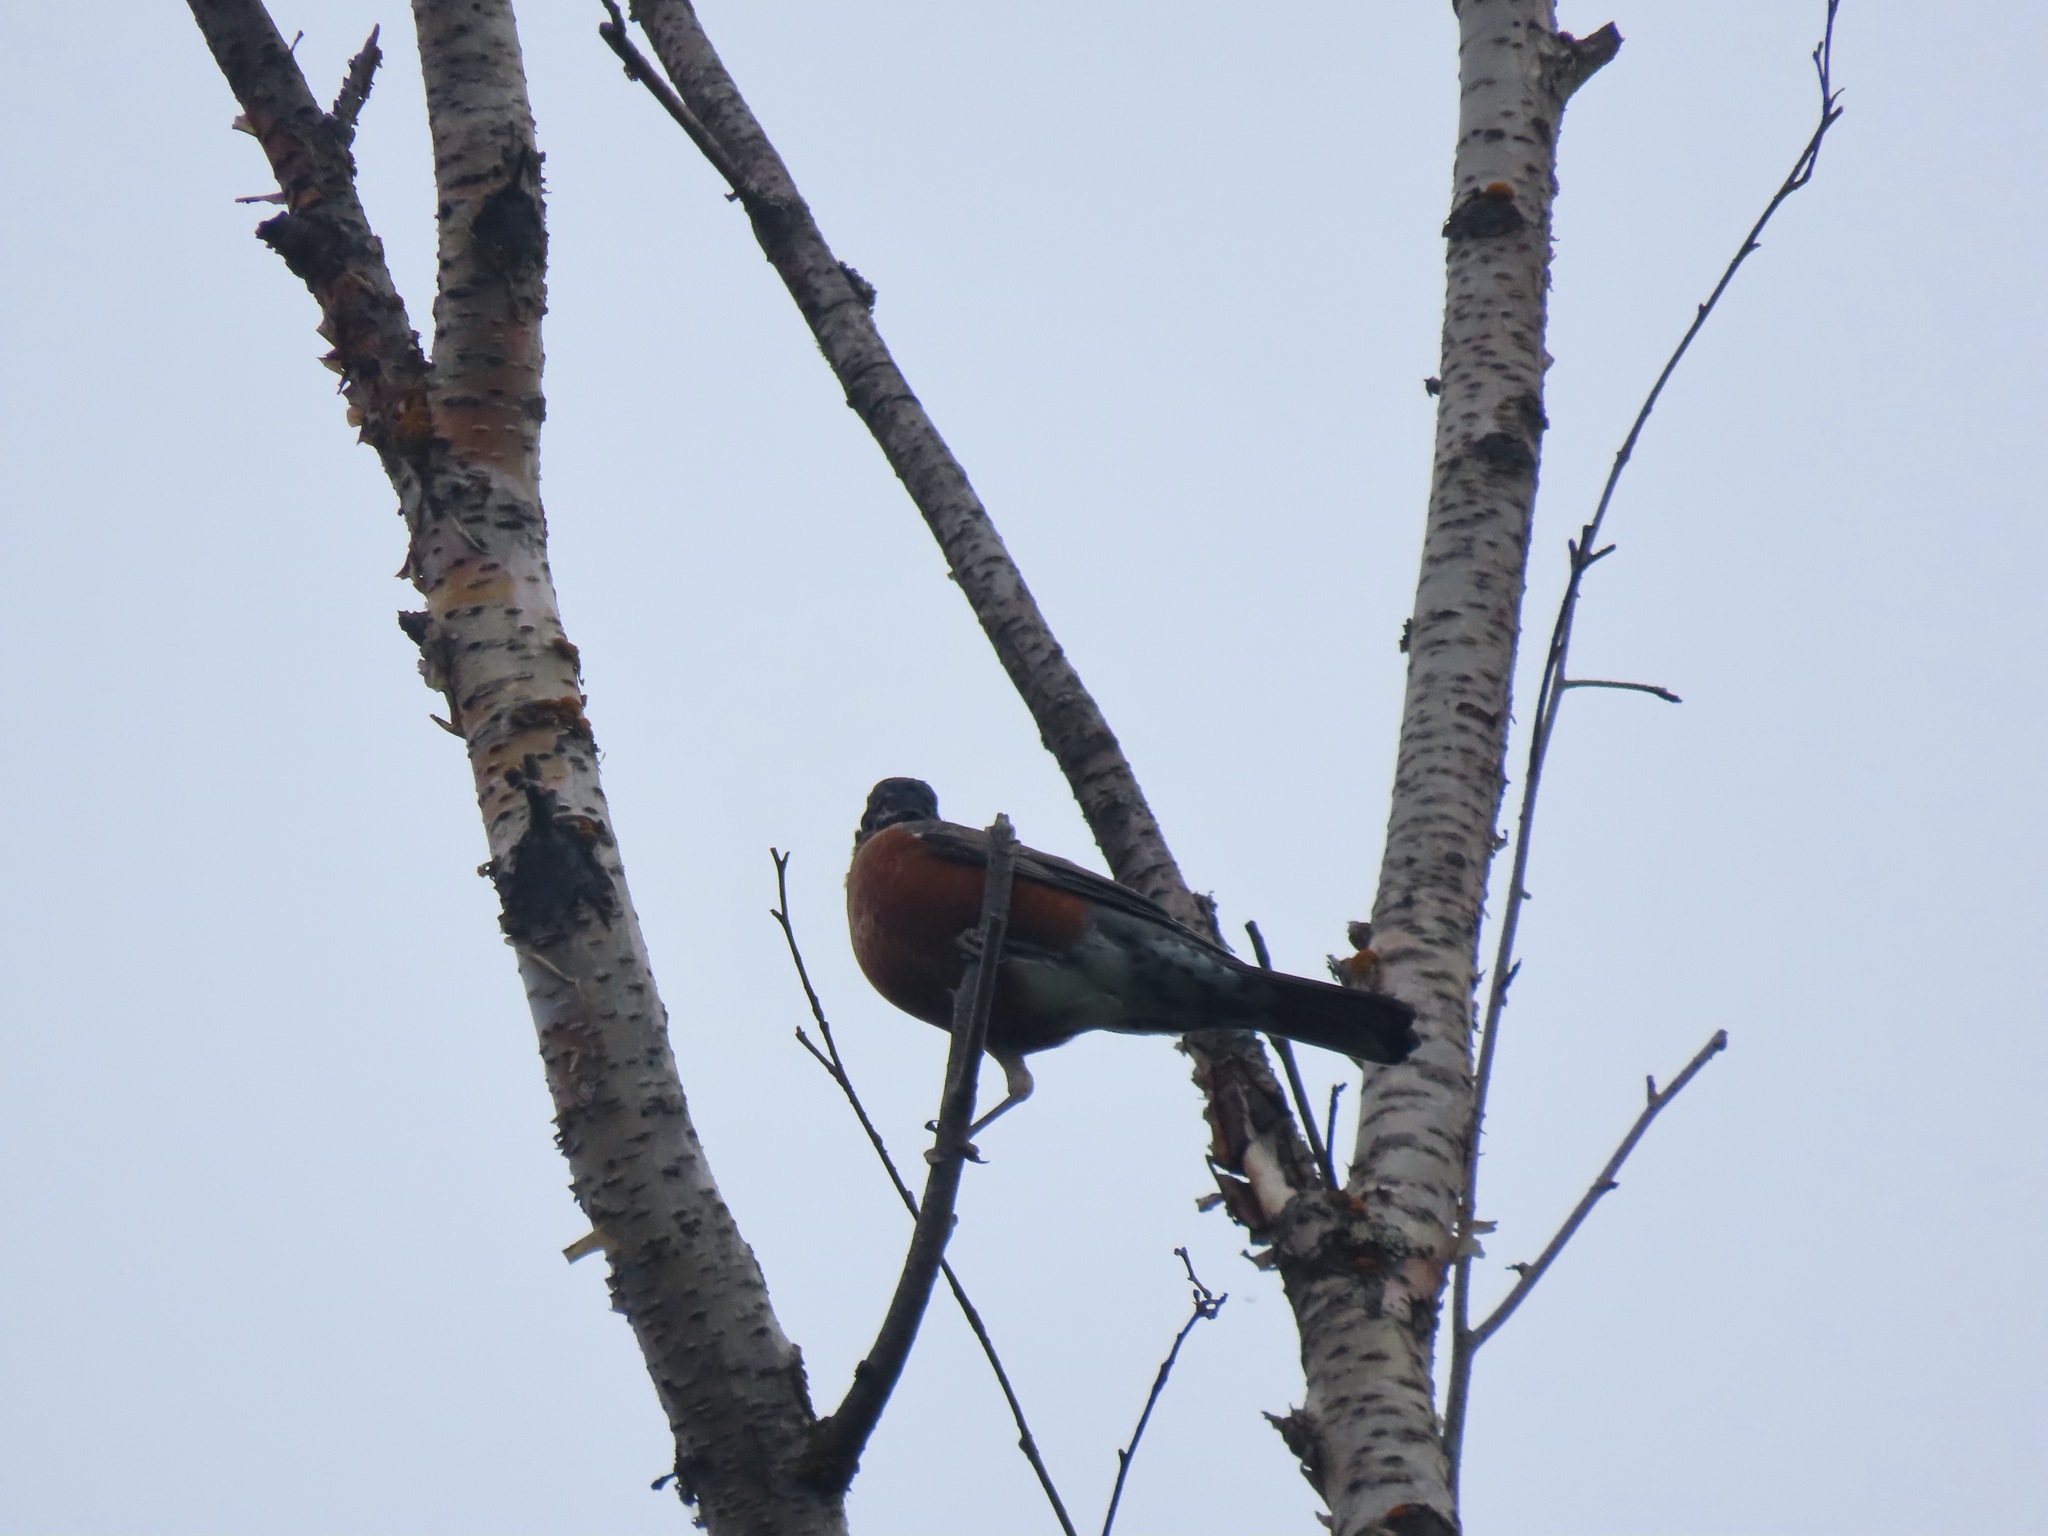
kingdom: Animalia
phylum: Chordata
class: Aves
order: Passeriformes
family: Turdidae
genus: Turdus
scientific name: Turdus migratorius
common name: American robin
